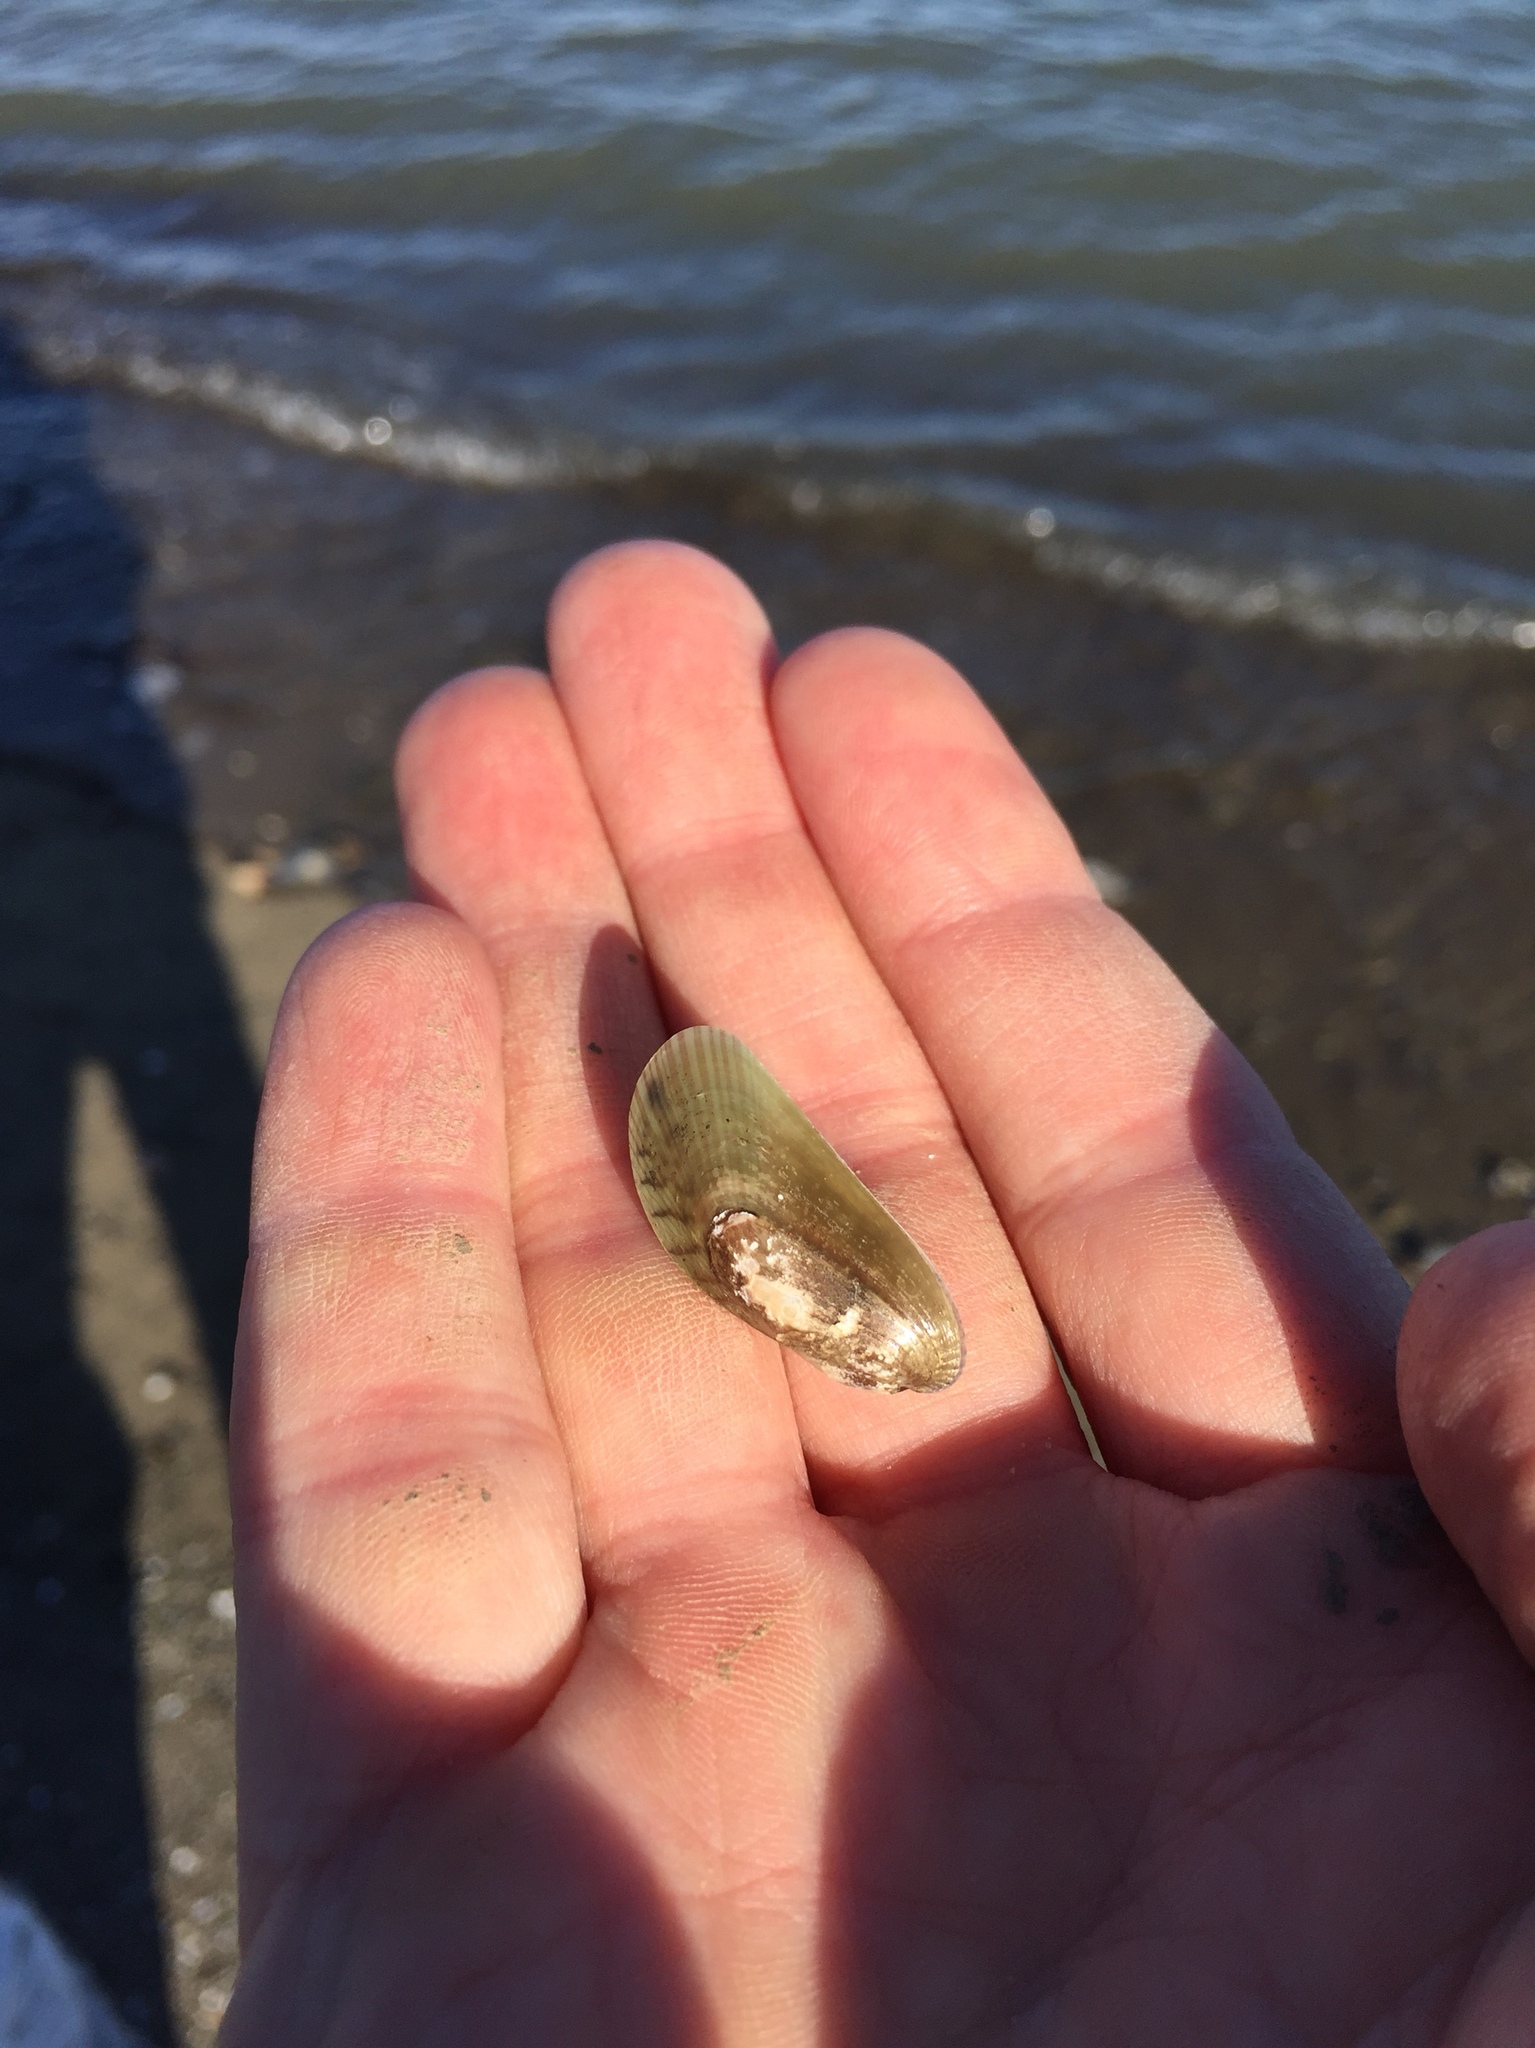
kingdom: Animalia
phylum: Mollusca
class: Bivalvia
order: Mytilida
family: Mytilidae
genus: Arcuatula
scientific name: Arcuatula senhousia
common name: Asian mussel
